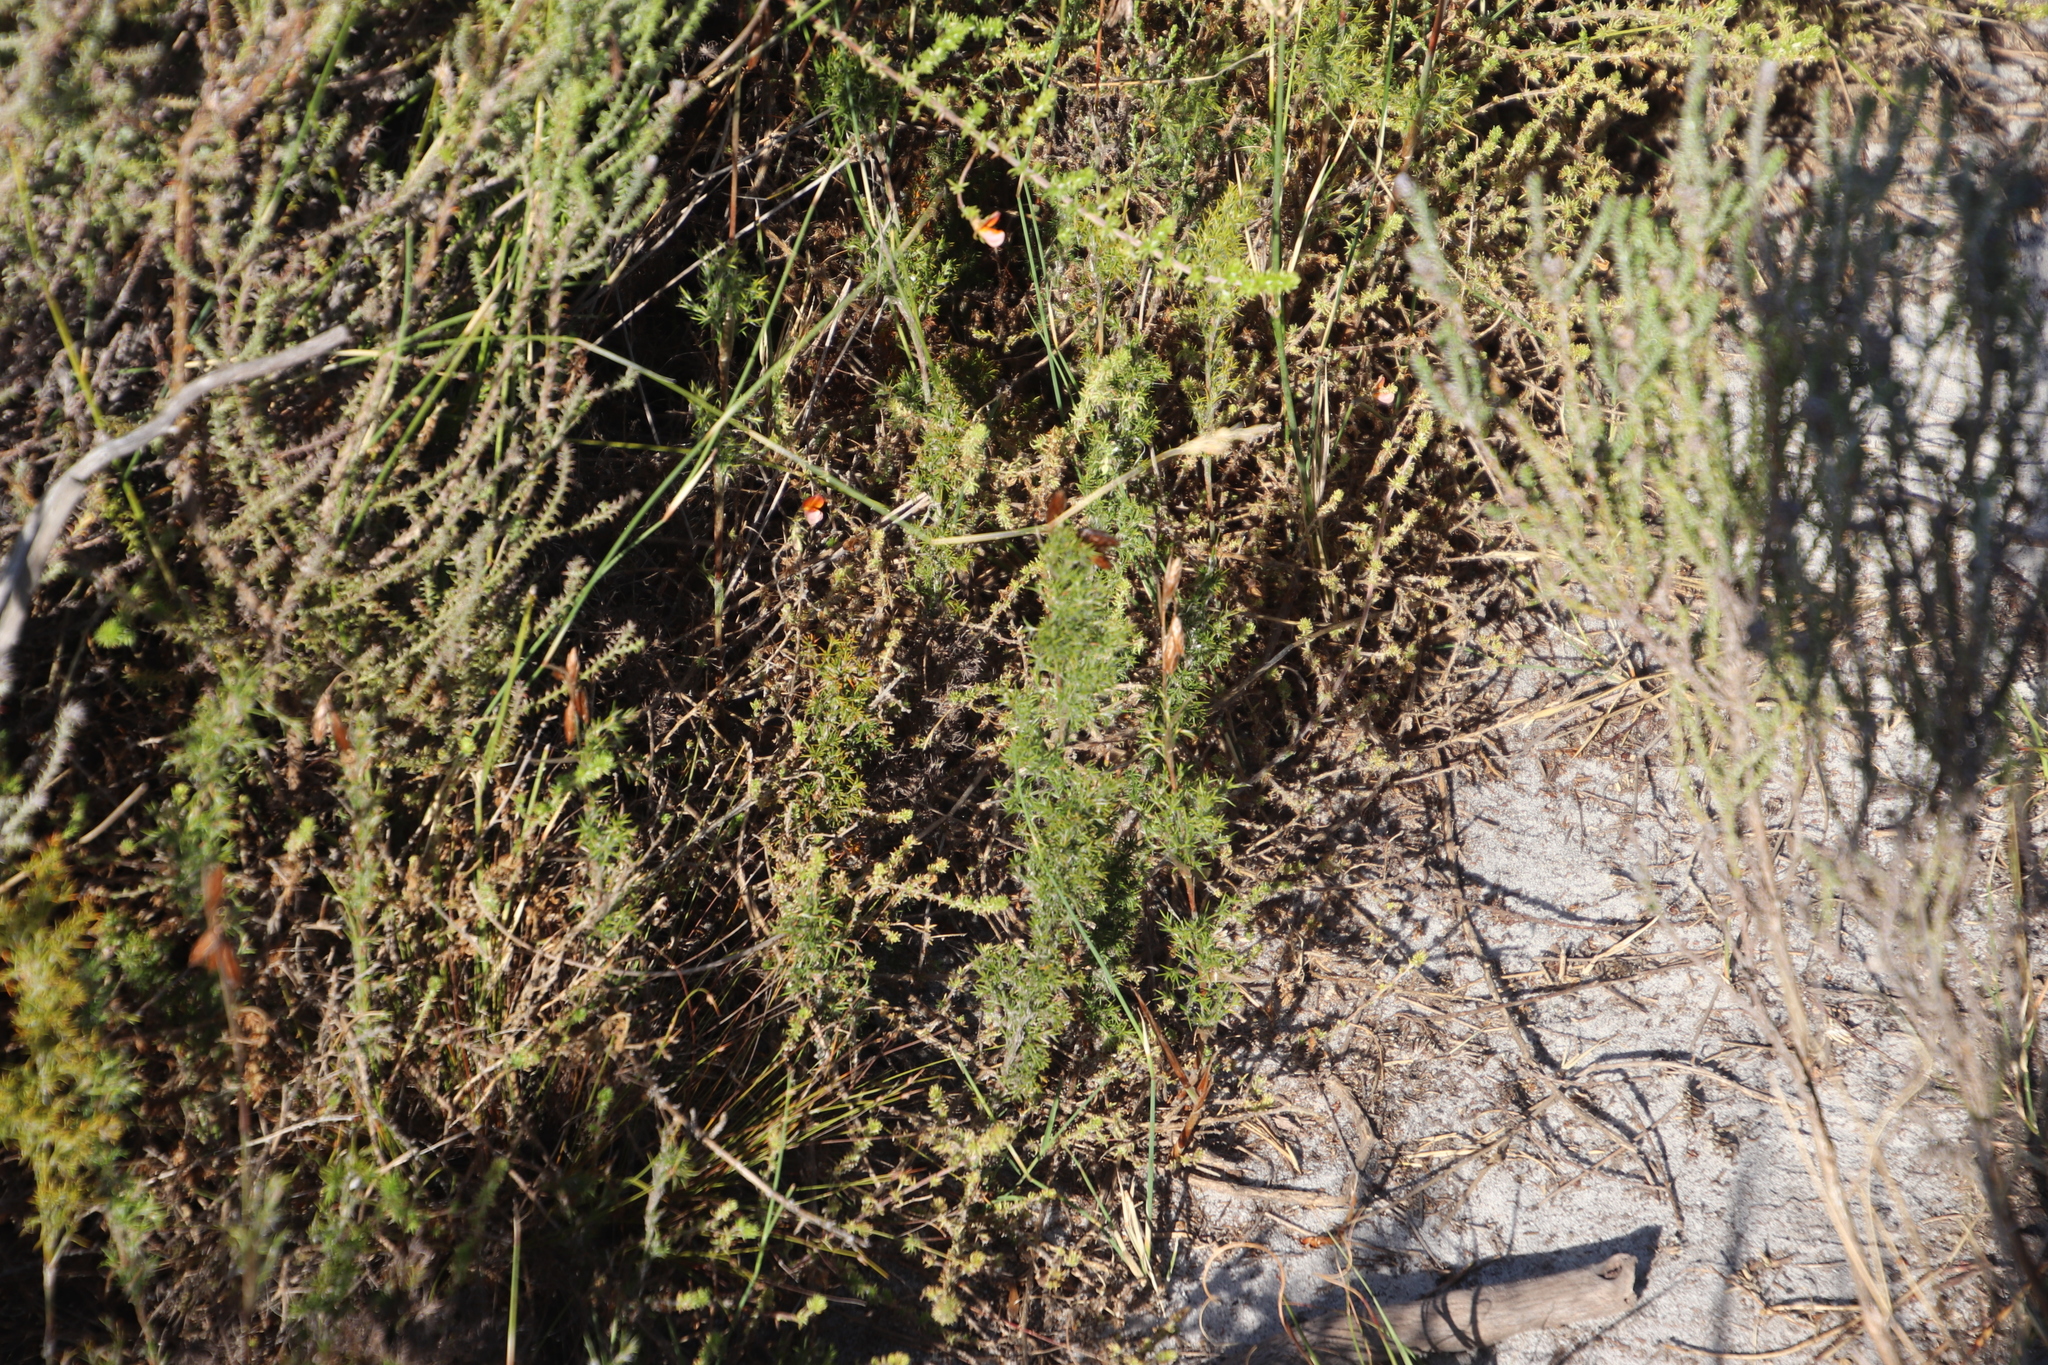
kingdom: Plantae
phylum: Tracheophyta
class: Liliopsida
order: Poales
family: Restionaceae
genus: Thamnochortus
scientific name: Thamnochortus fruticosus
